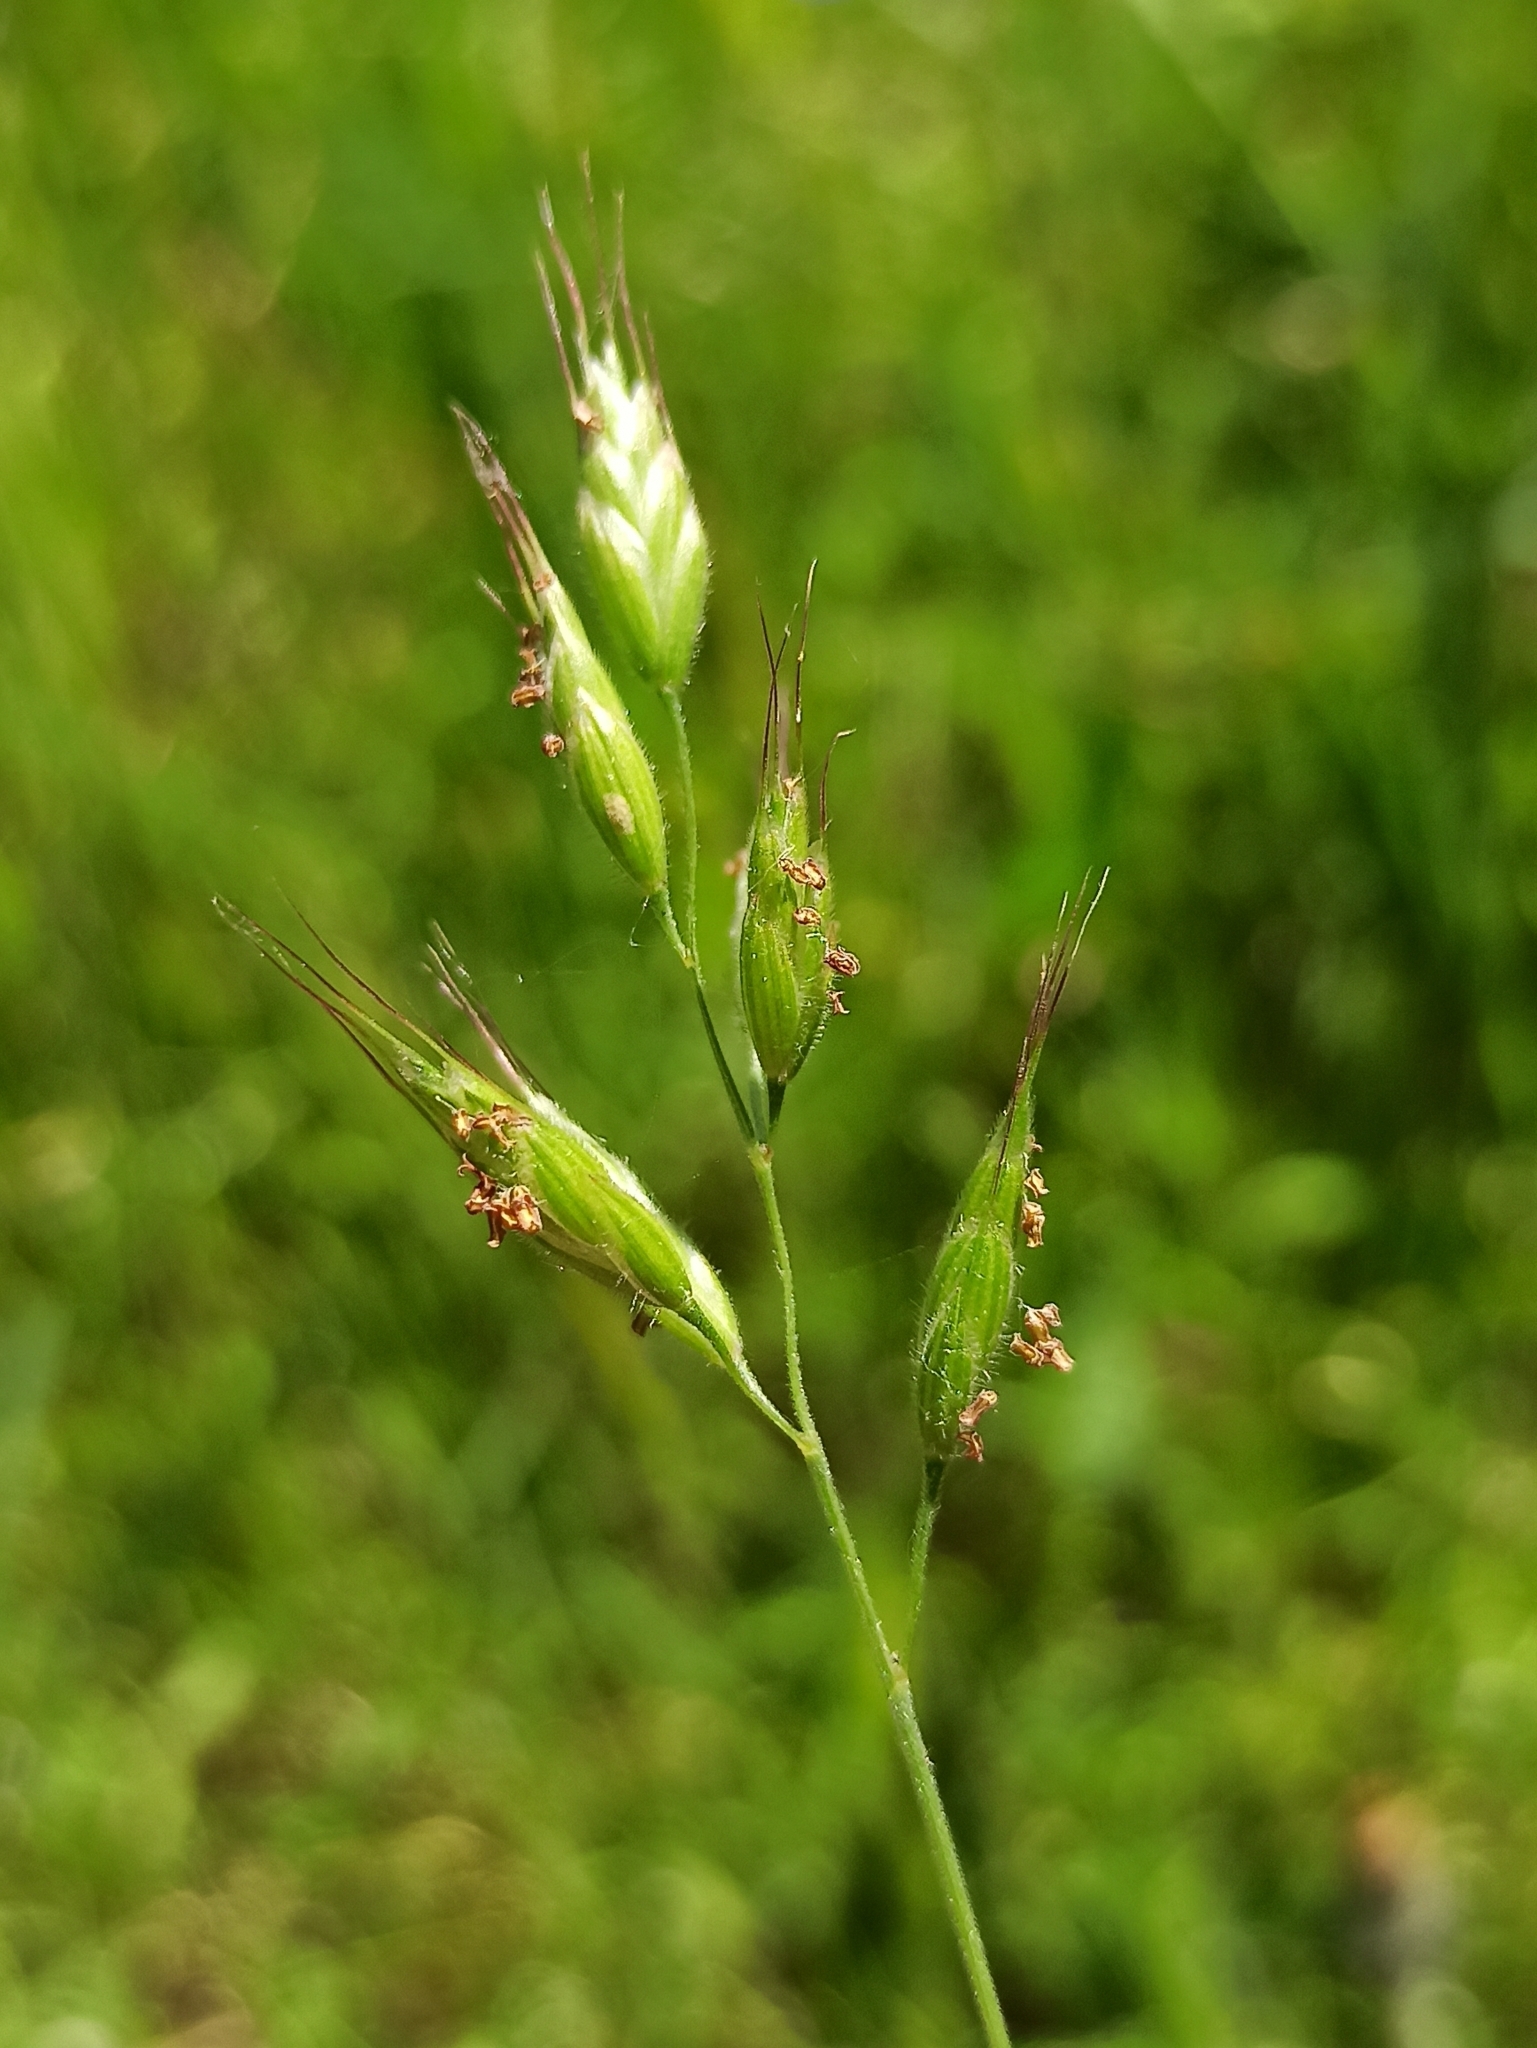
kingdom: Plantae
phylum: Tracheophyta
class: Liliopsida
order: Poales
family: Poaceae
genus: Bromus
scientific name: Bromus hordeaceus
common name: Soft brome
